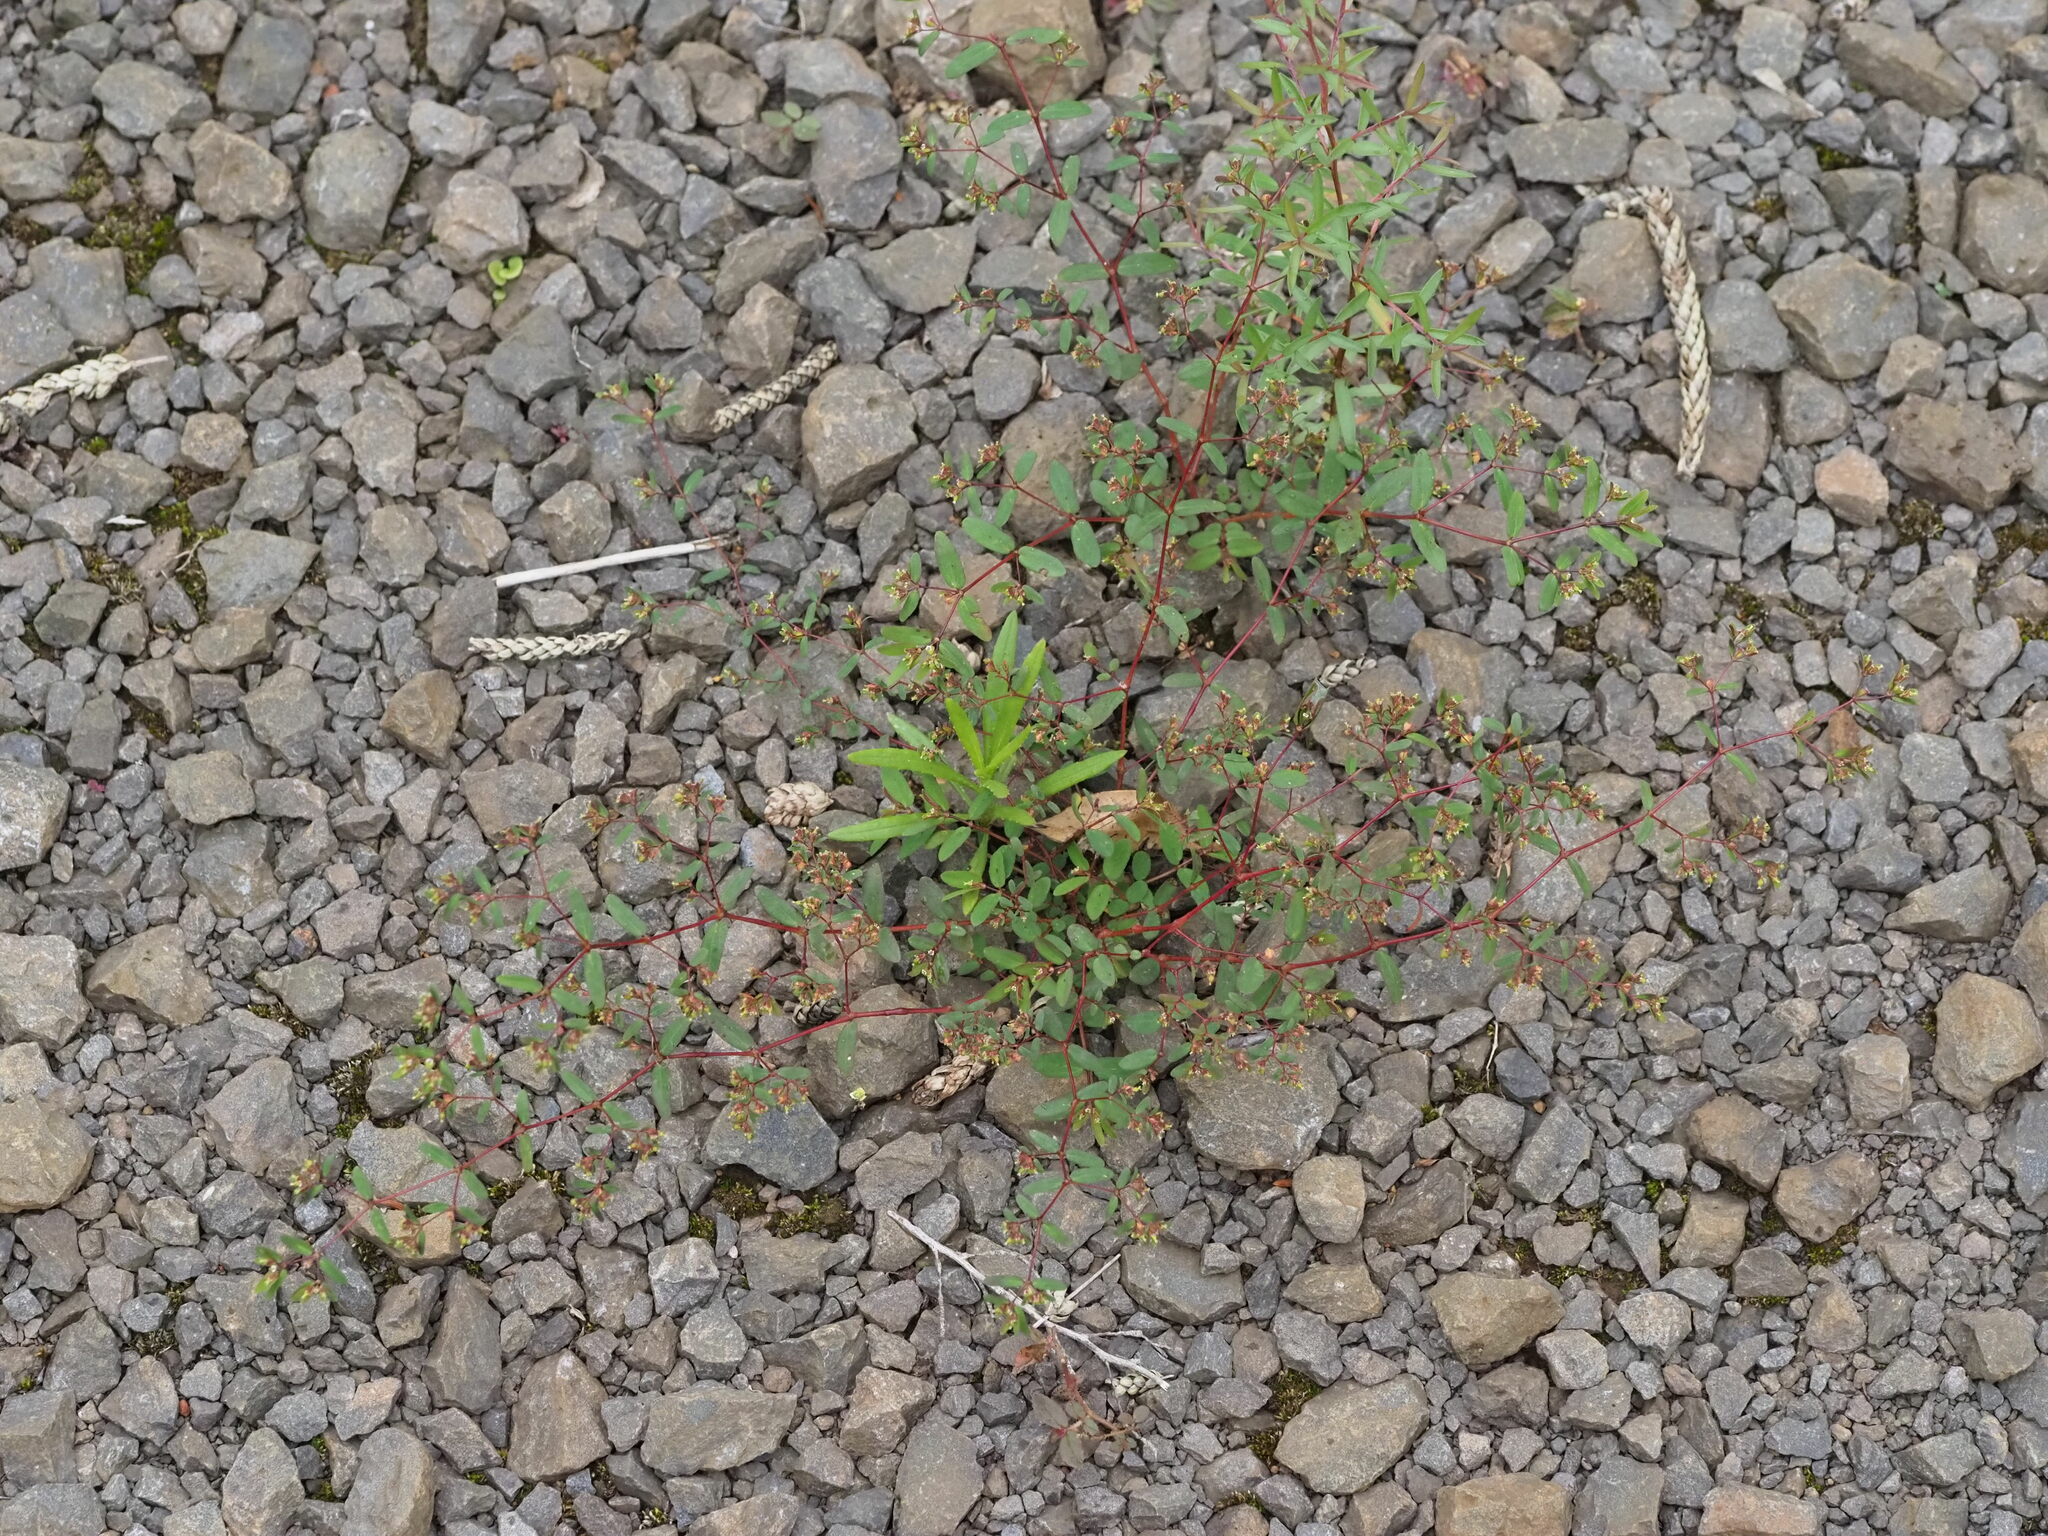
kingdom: Plantae
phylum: Tracheophyta
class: Magnoliopsida
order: Malpighiales
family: Euphorbiaceae
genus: Euphorbia
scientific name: Euphorbia hyssopifolia
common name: Hyssopleaf sandmat
